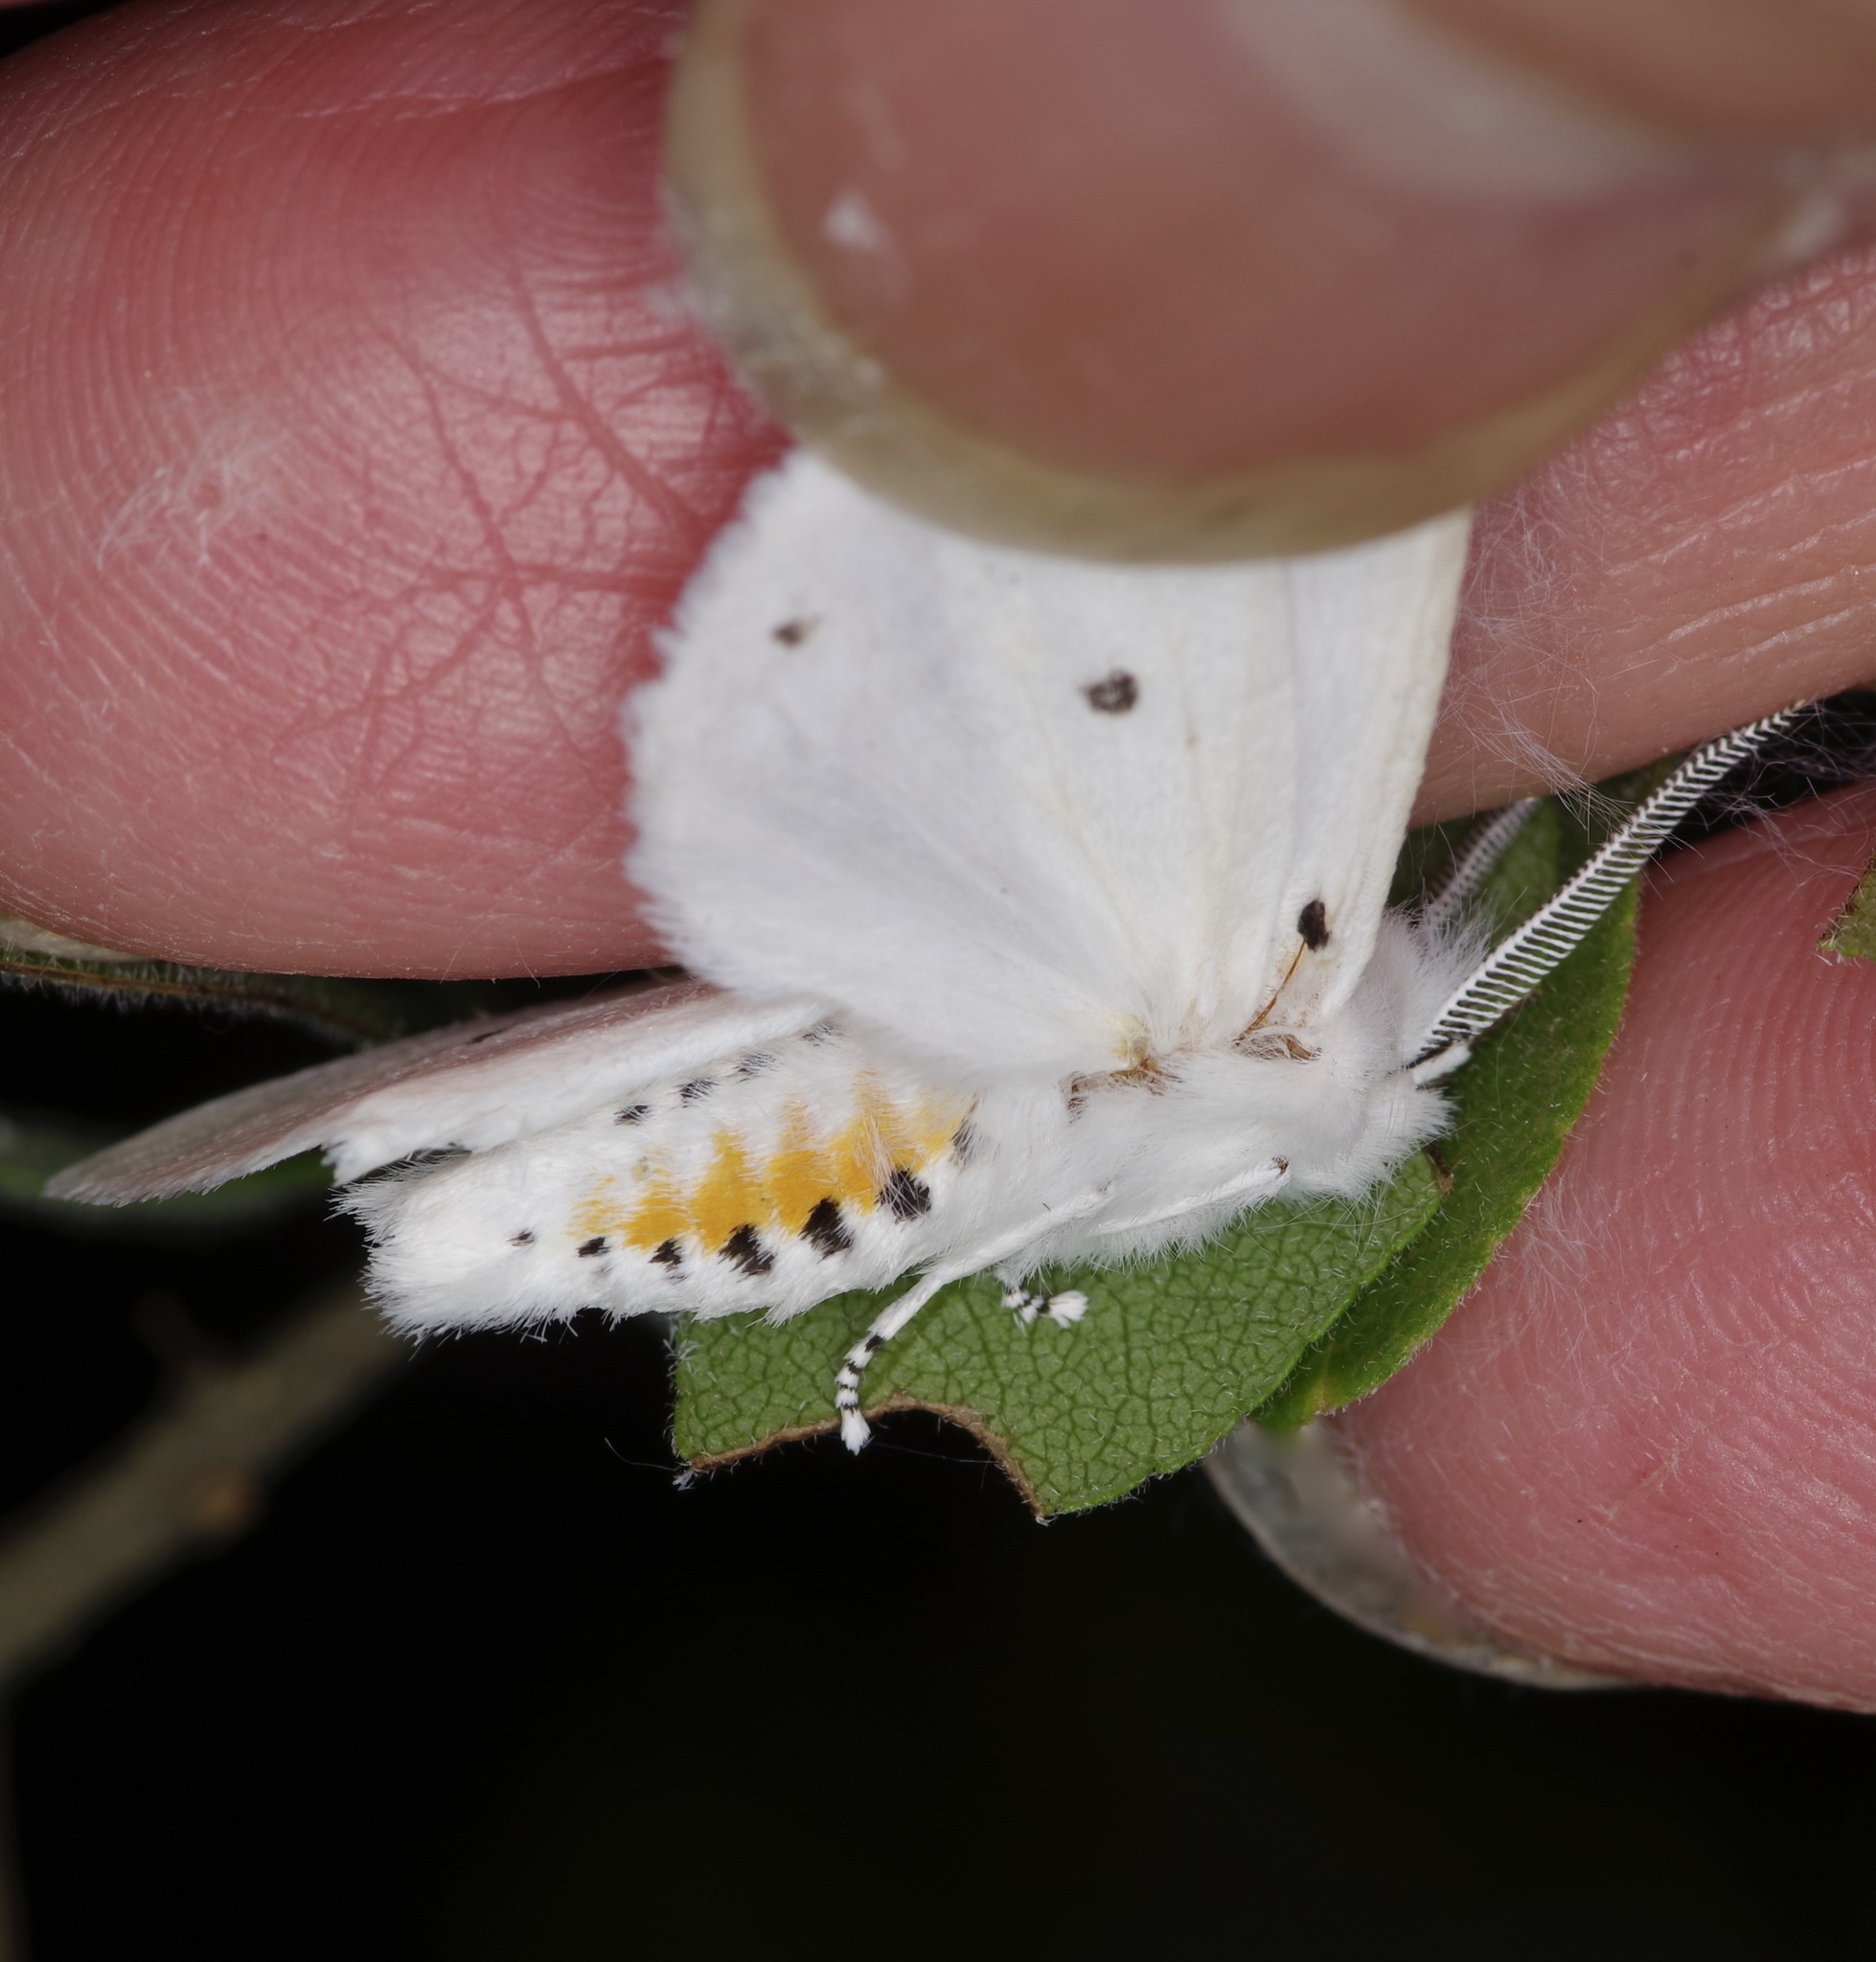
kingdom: Animalia
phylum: Arthropoda
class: Insecta
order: Lepidoptera
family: Erebidae
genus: Spilosoma
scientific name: Spilosoma virginica
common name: Virginia tiger moth
